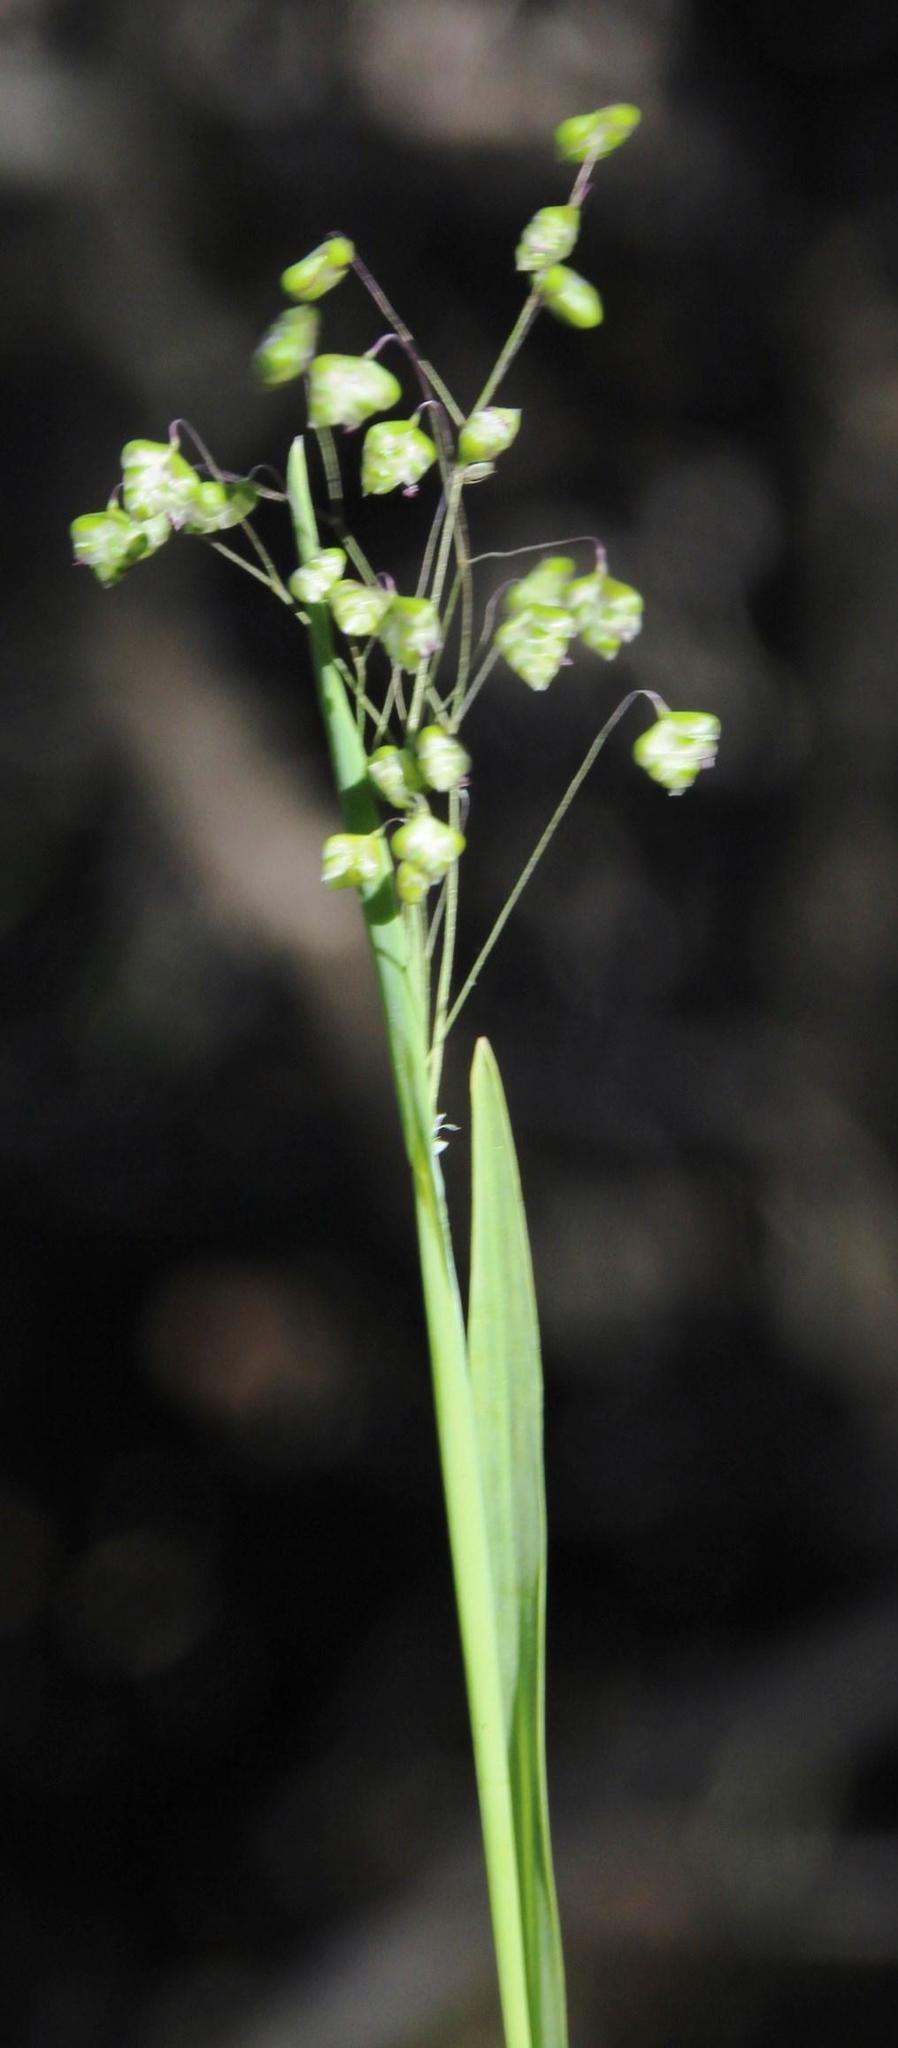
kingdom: Plantae
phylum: Tracheophyta
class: Liliopsida
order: Poales
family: Poaceae
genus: Briza
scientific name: Briza minor
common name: Lesser quaking-grass
